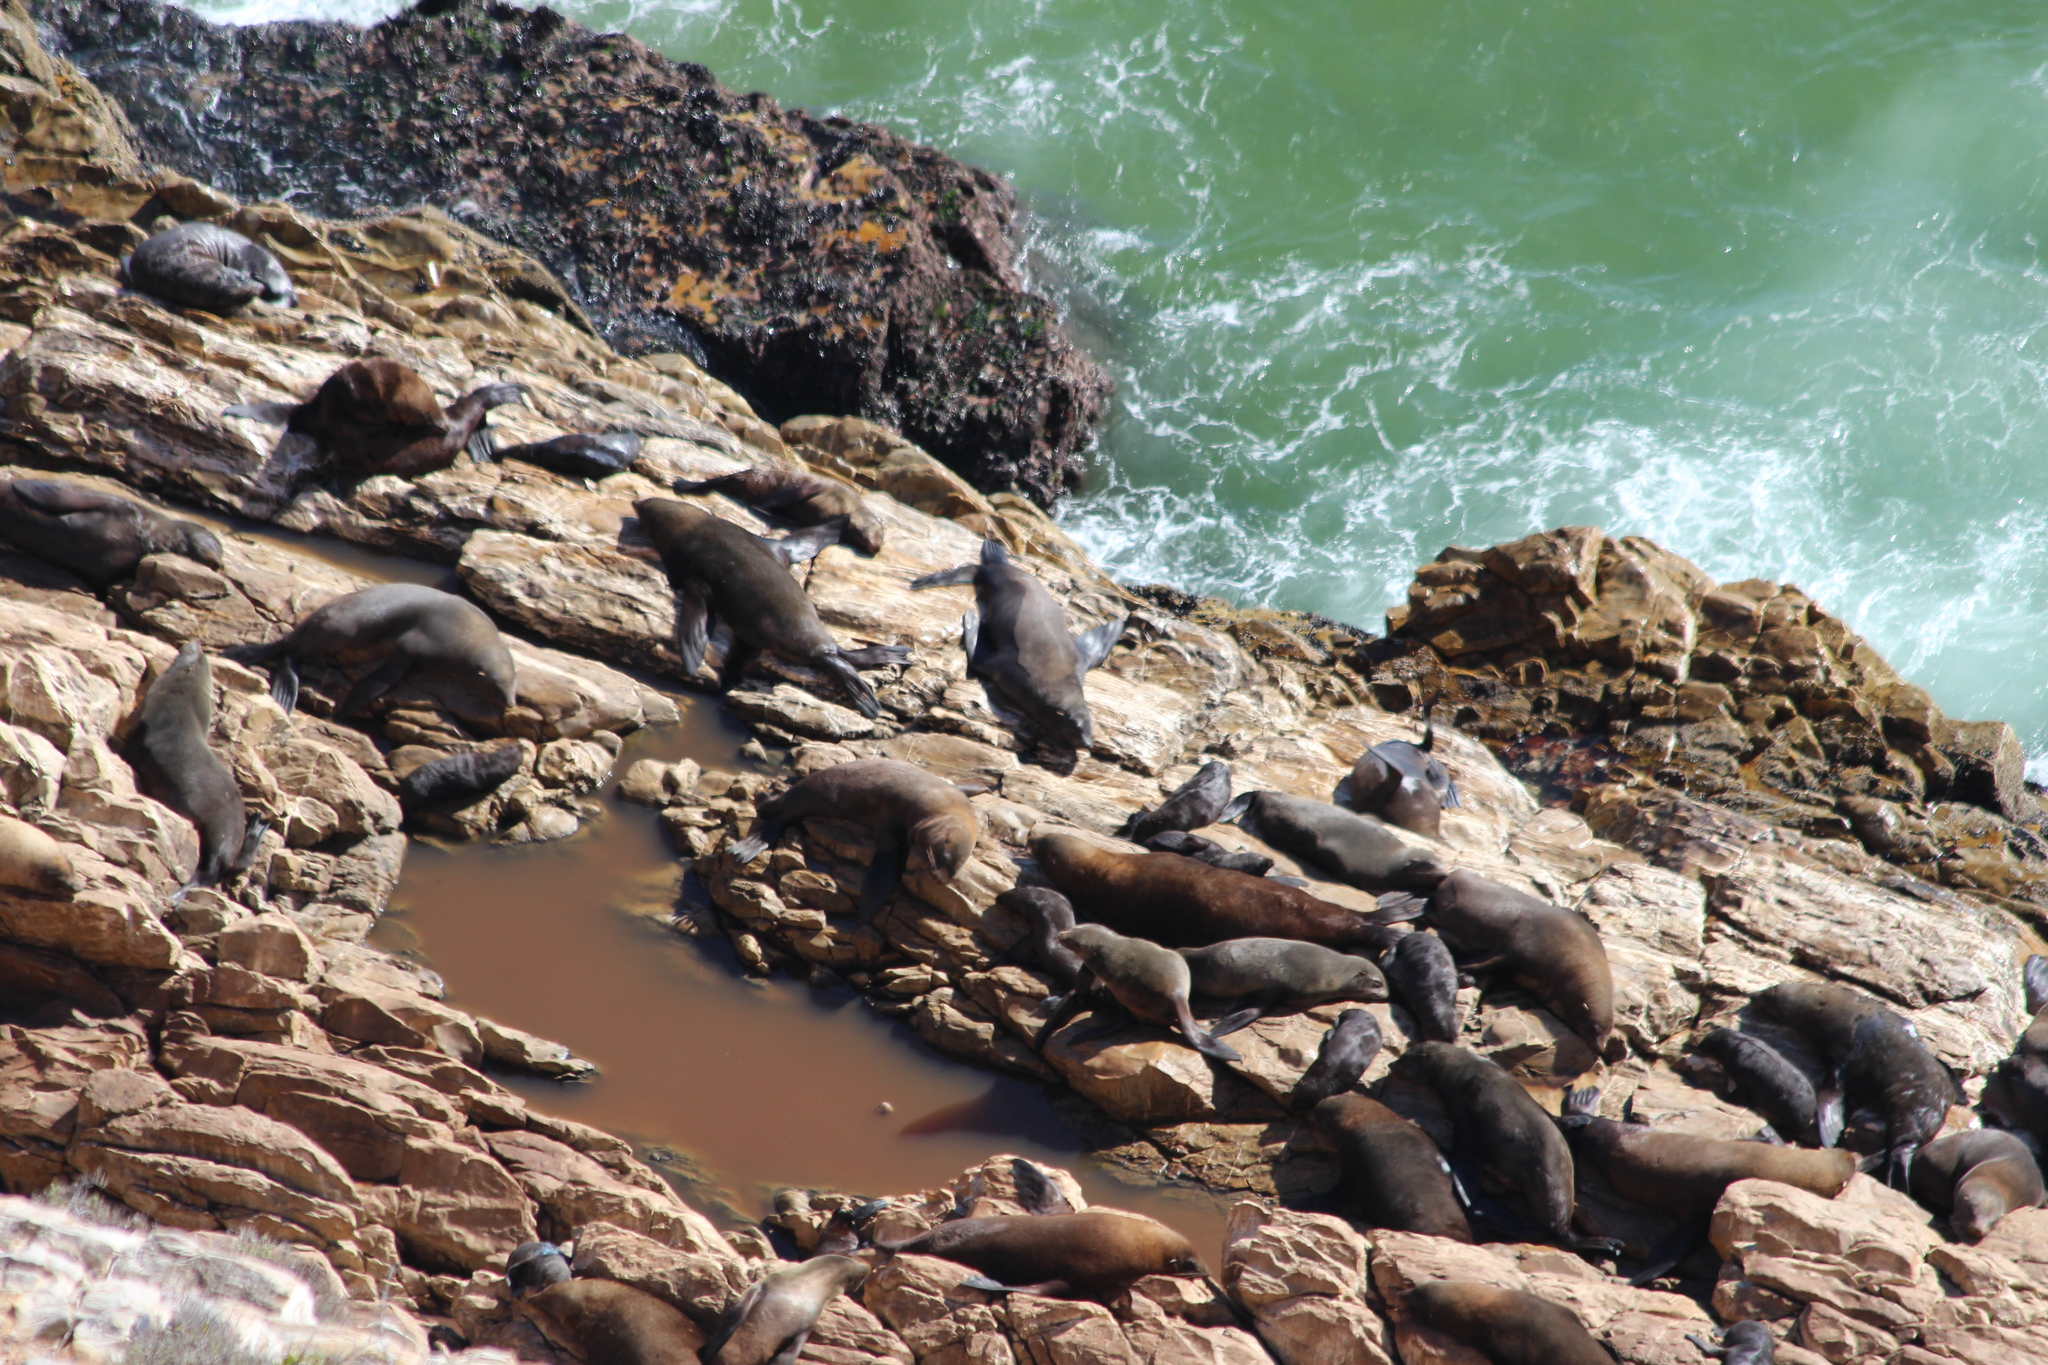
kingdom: Animalia
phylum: Chordata
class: Mammalia
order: Carnivora
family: Otariidae
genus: Arctocephalus
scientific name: Arctocephalus pusillus
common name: Brown fur seal
